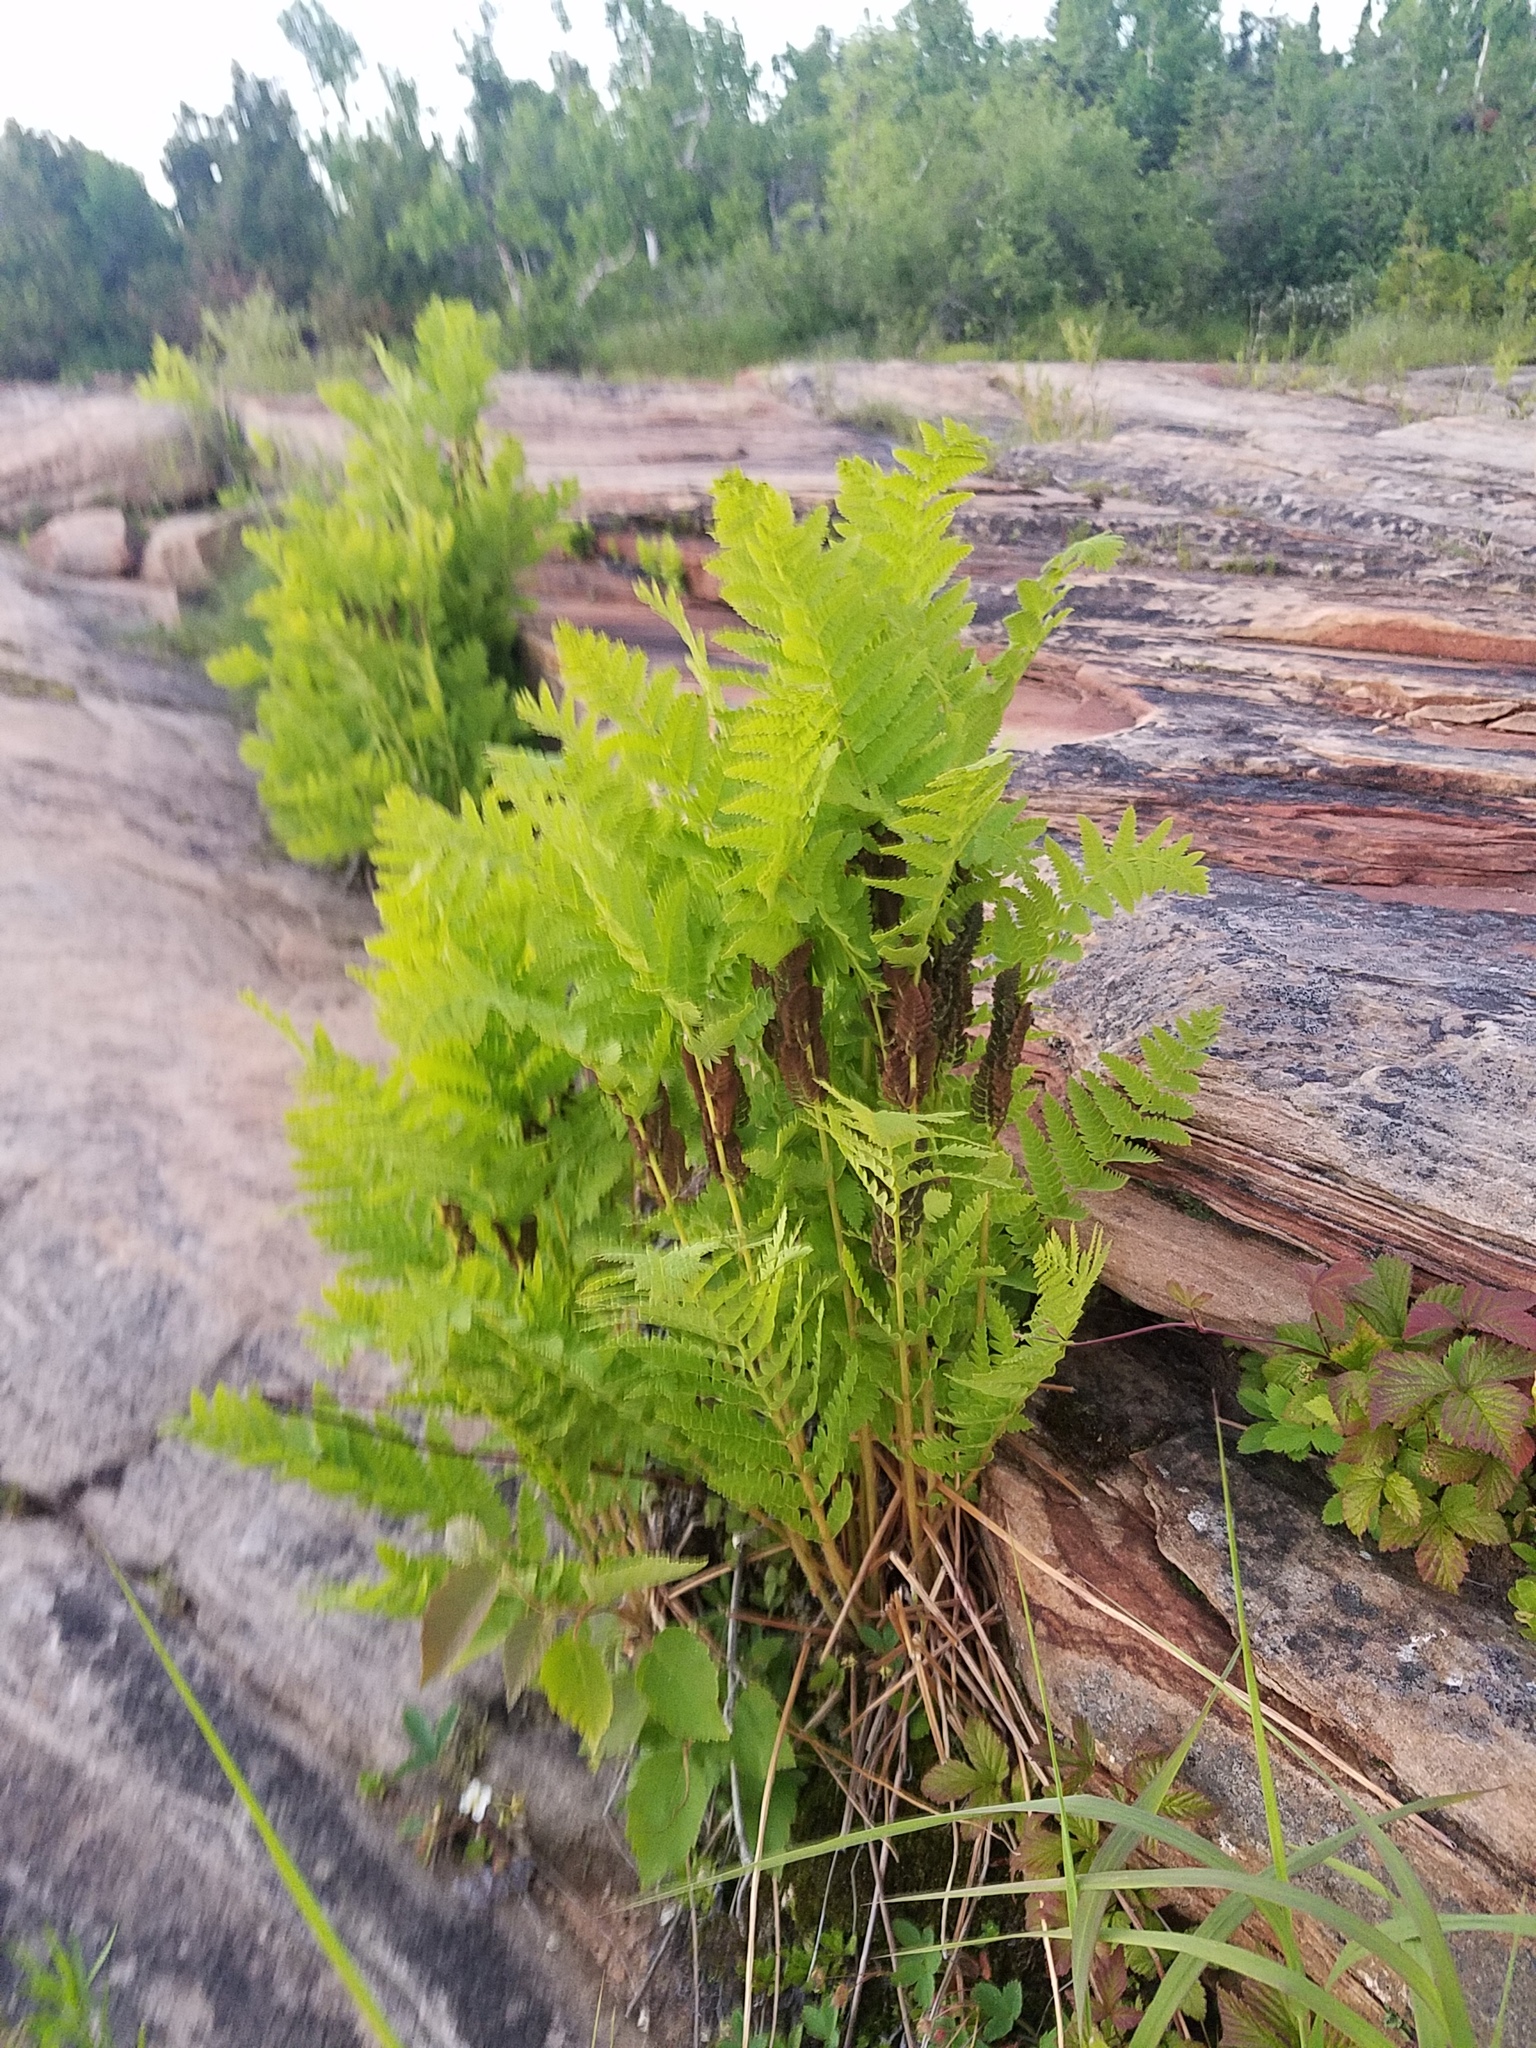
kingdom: Plantae
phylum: Tracheophyta
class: Polypodiopsida
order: Osmundales
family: Osmundaceae
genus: Claytosmunda
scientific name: Claytosmunda claytoniana
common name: Clayton's fern
